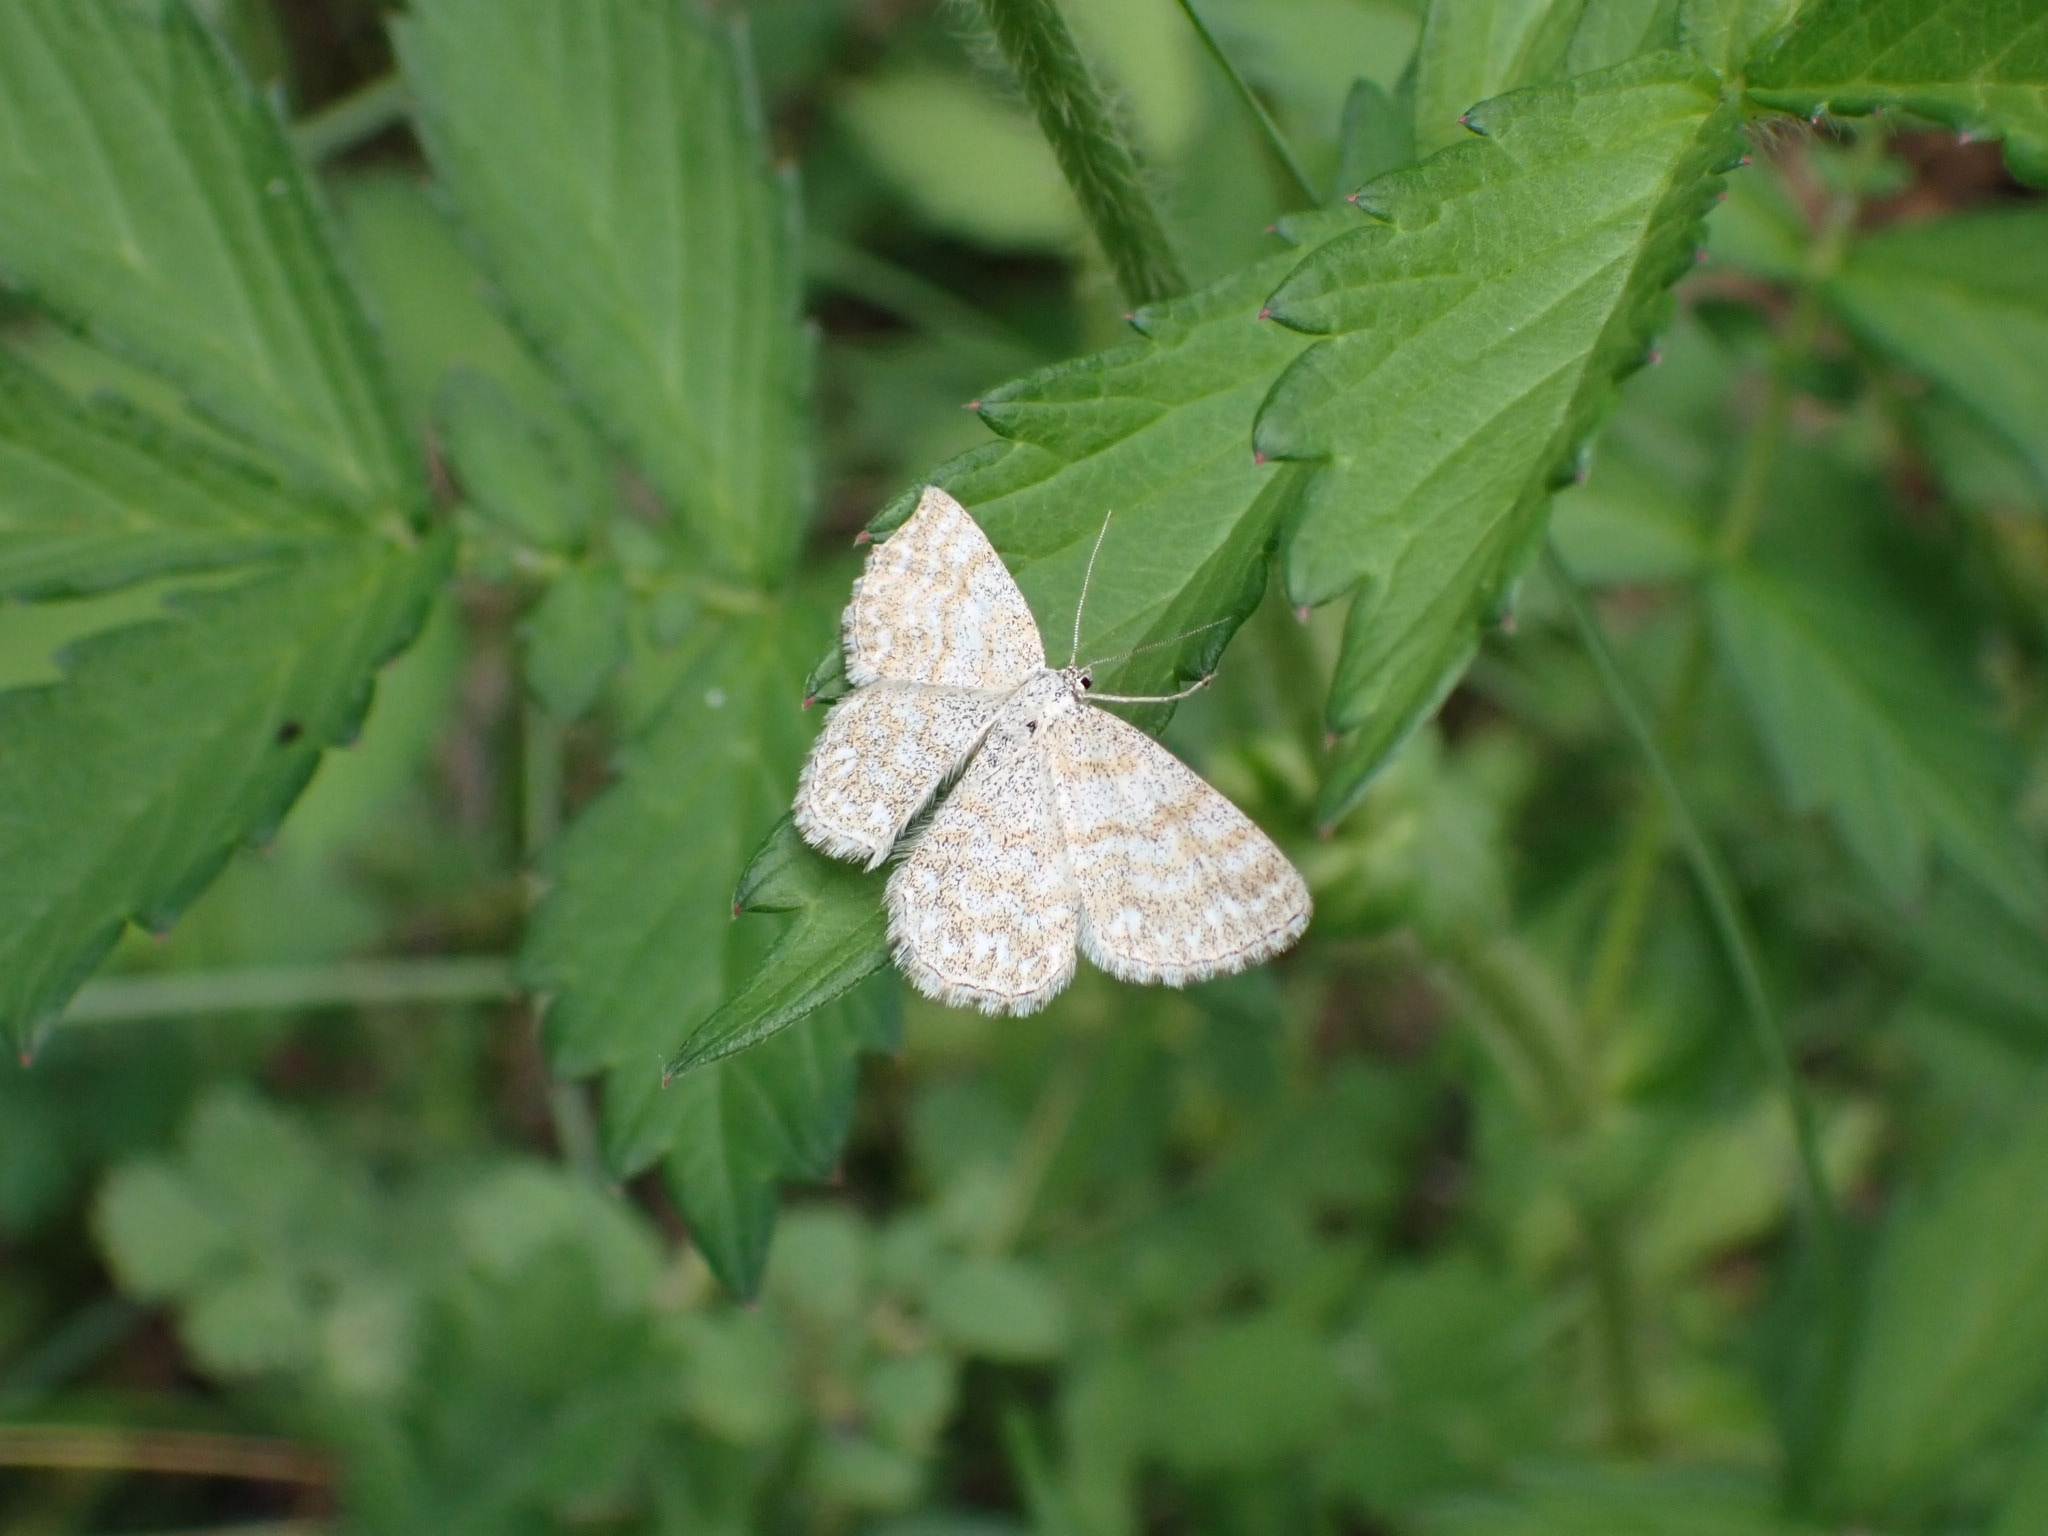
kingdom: Animalia
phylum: Arthropoda
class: Insecta
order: Lepidoptera
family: Geometridae
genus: Scopula
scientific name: Scopula immorata
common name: Lewes wave
